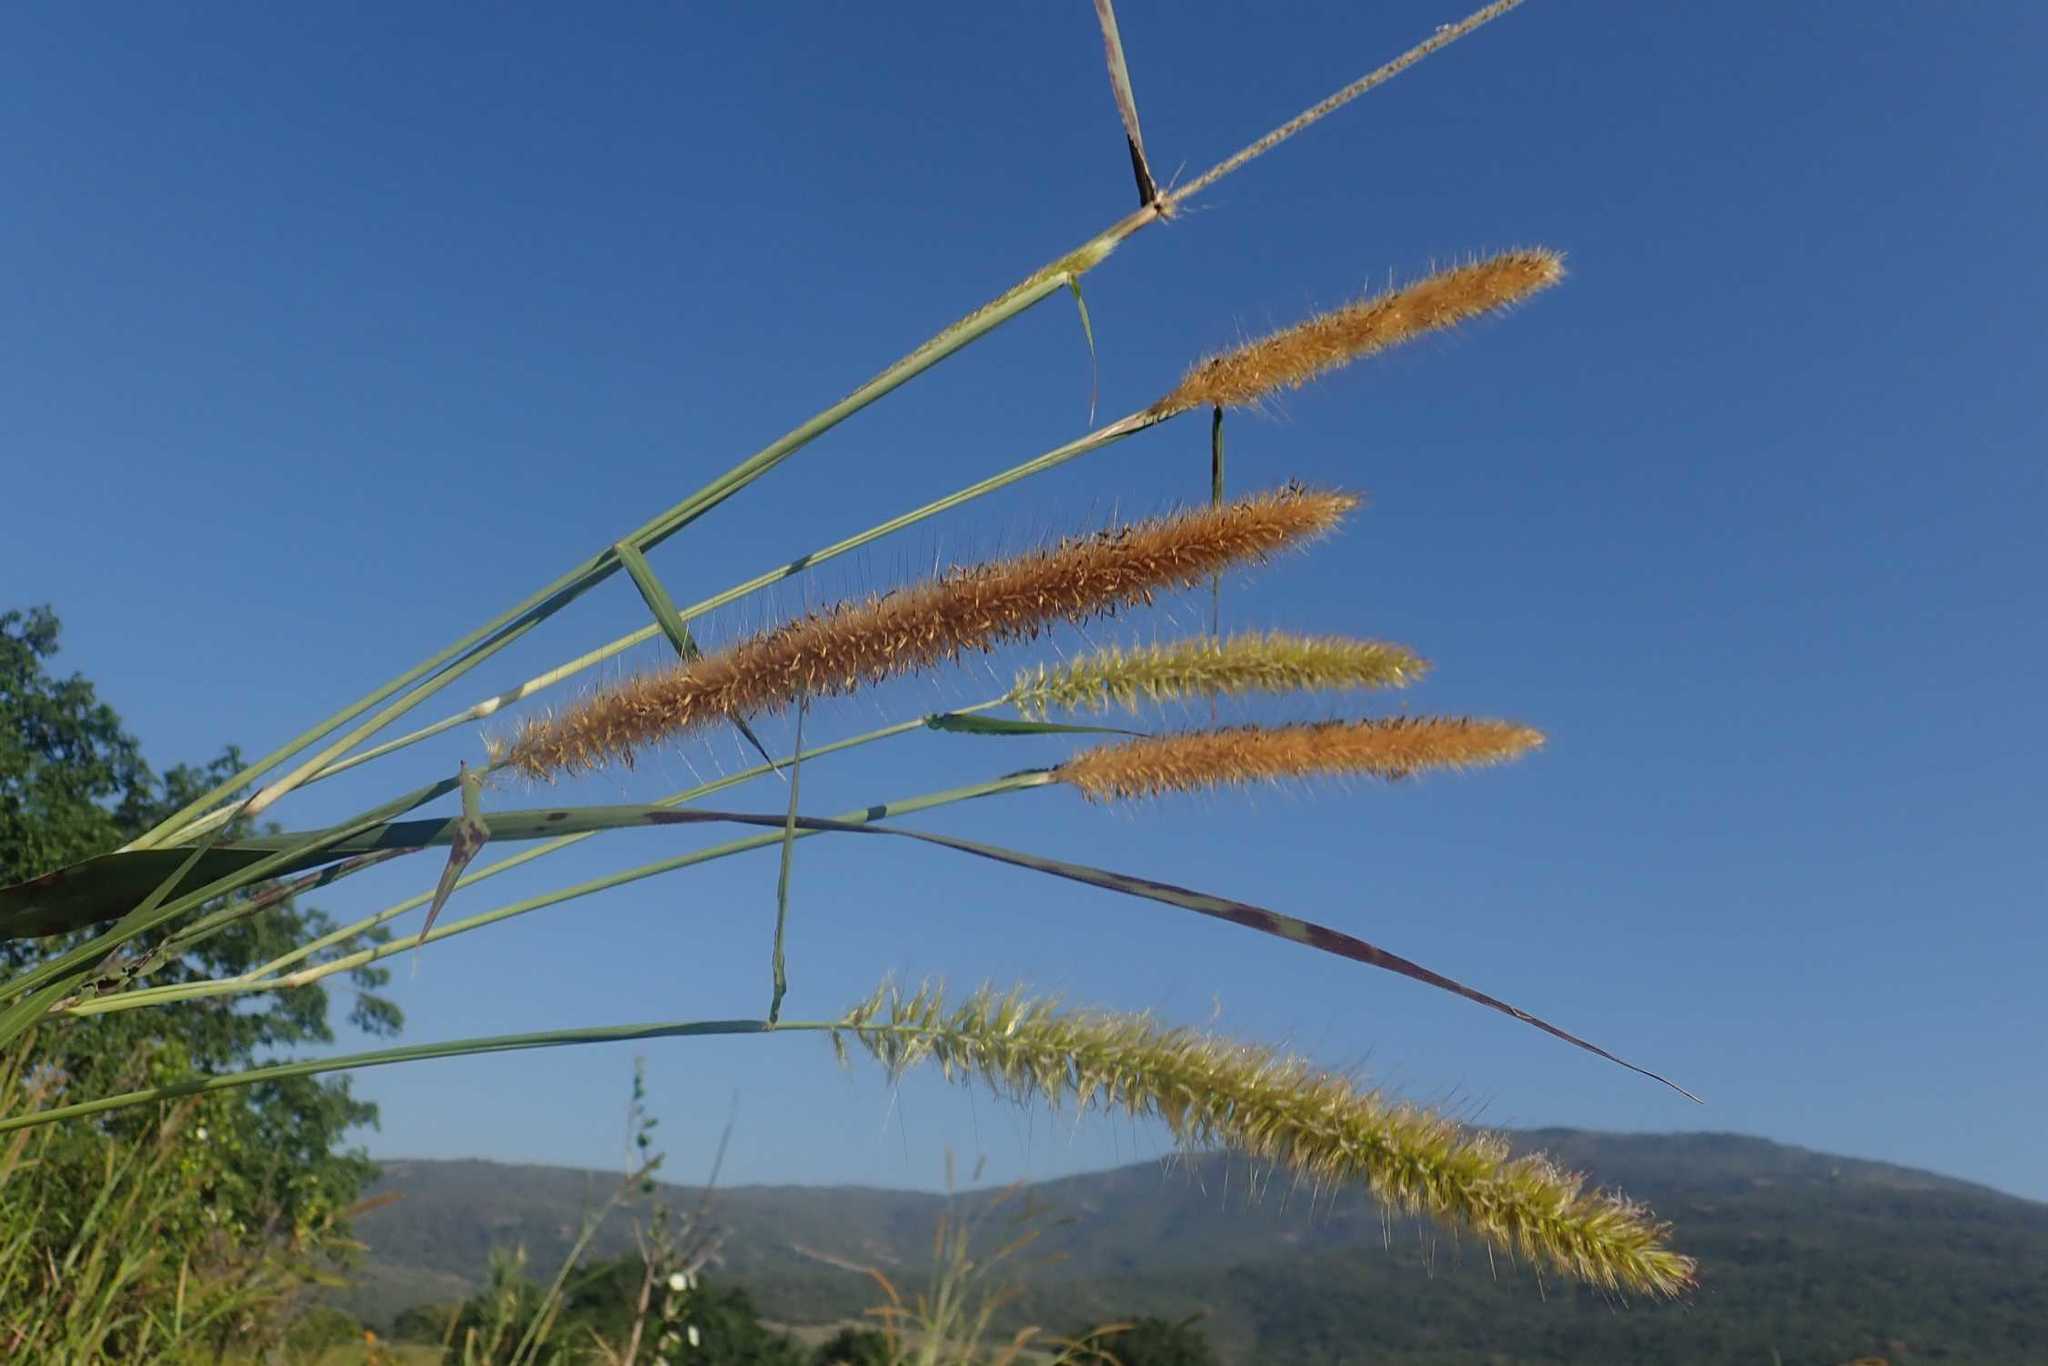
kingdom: Plantae
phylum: Tracheophyta
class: Liliopsida
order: Poales
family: Poaceae
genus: Cenchrus
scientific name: Cenchrus purpureus
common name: Elephant grass
